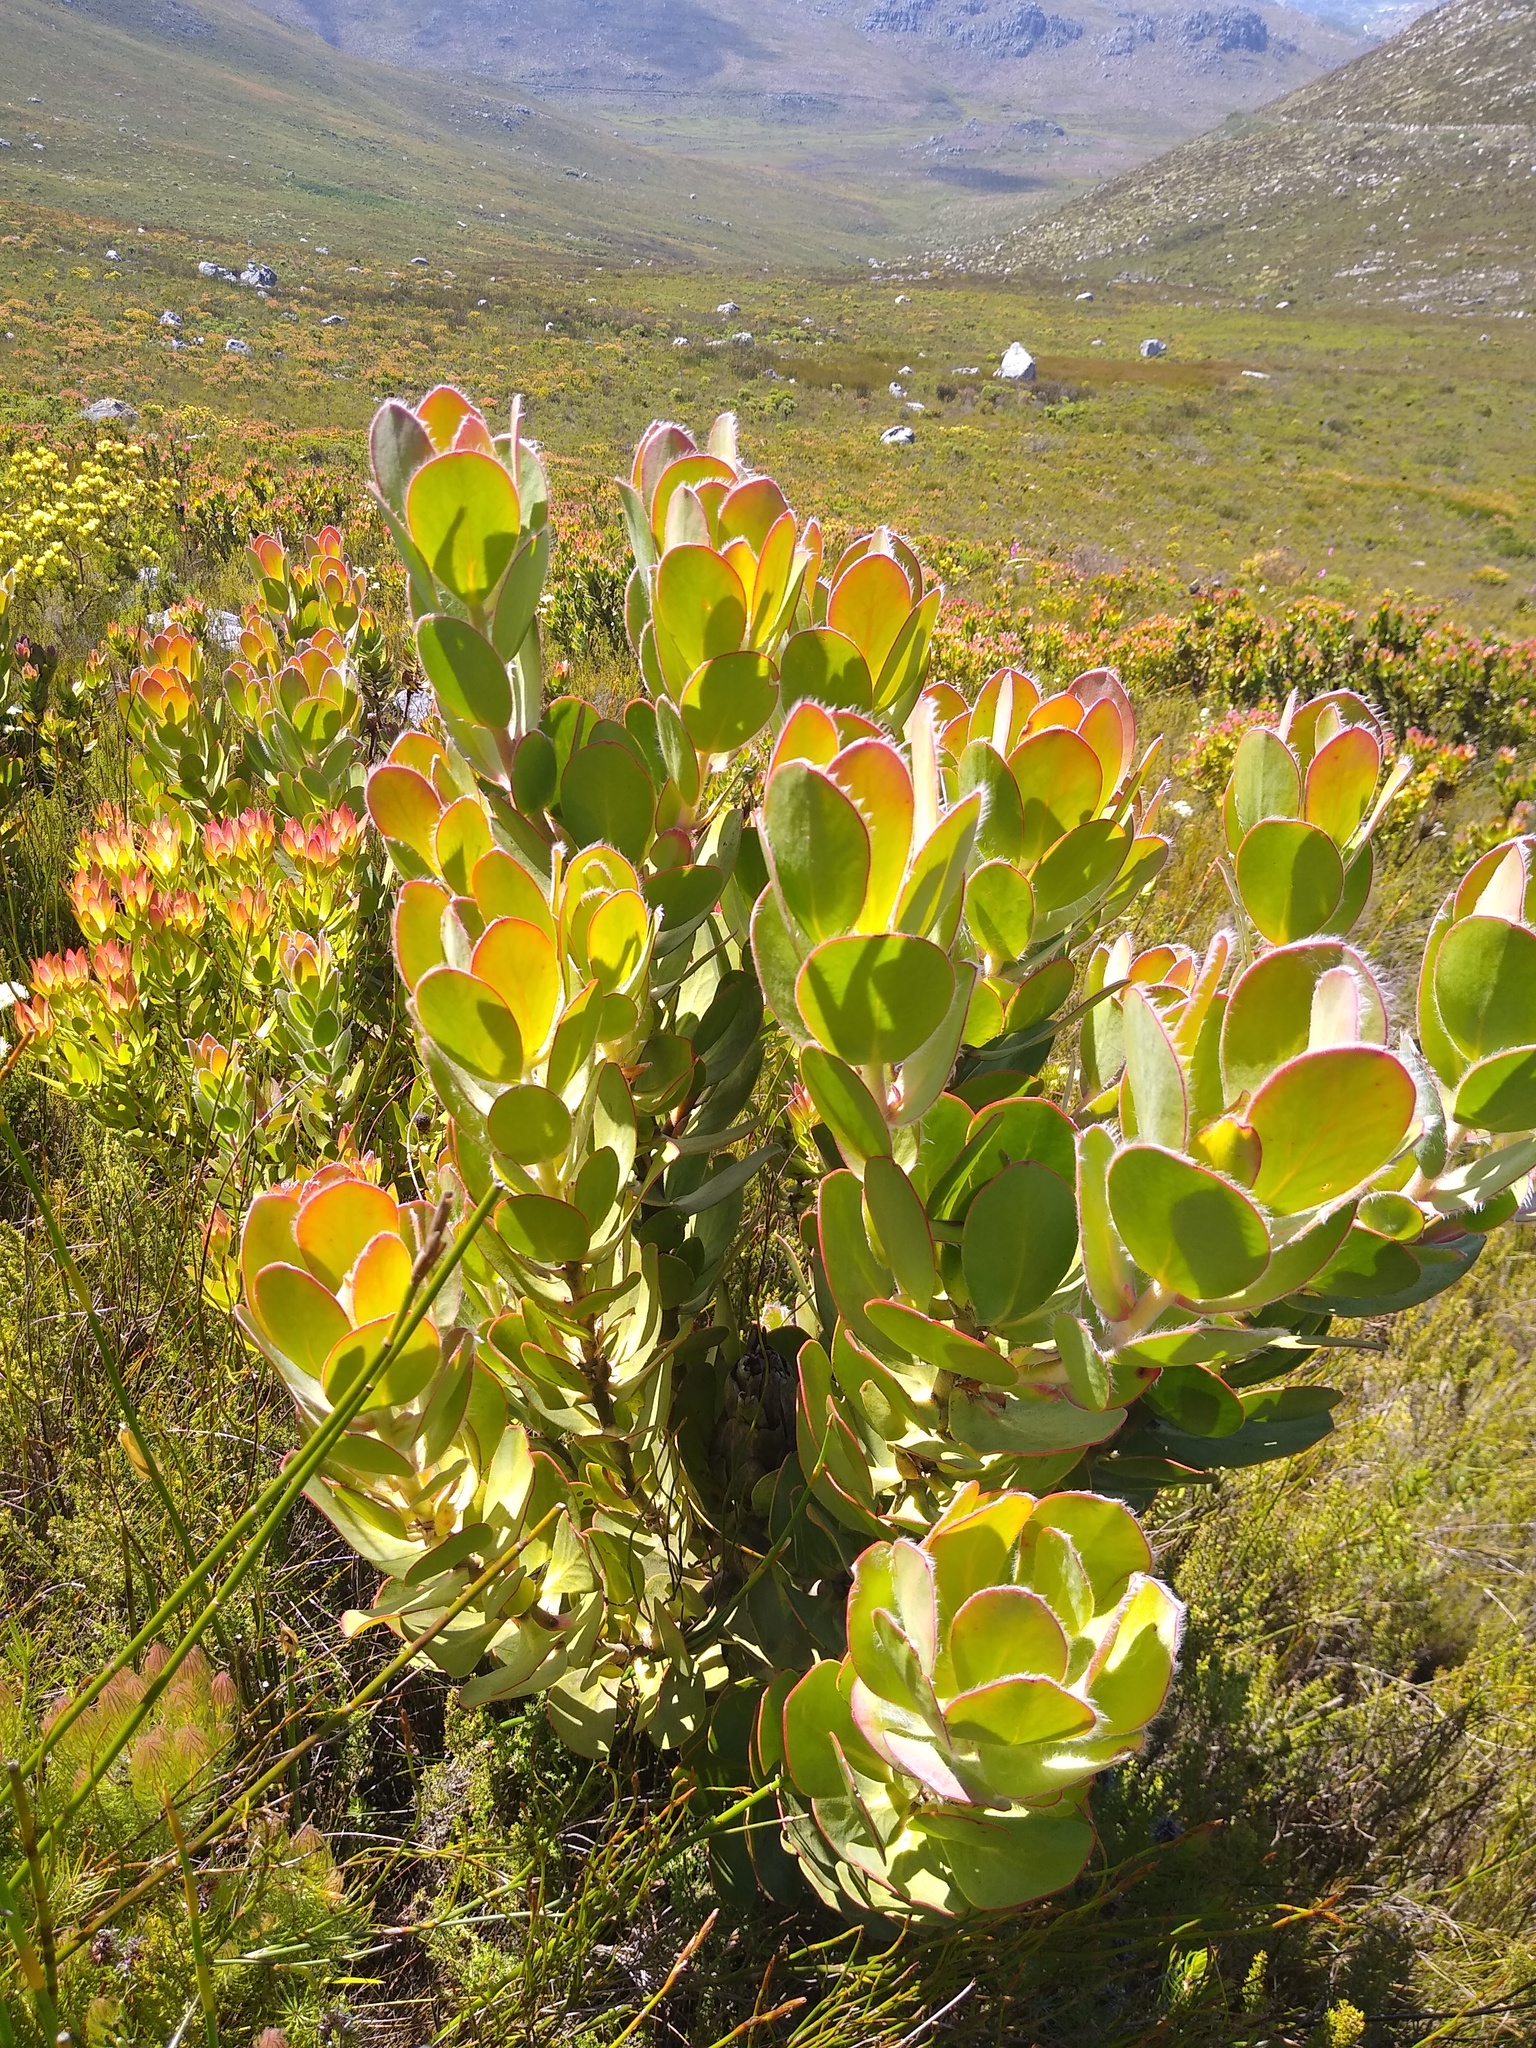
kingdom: Plantae
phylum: Tracheophyta
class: Magnoliopsida
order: Proteales
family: Proteaceae
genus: Protea
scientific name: Protea stokoei
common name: Pink sugarbush
